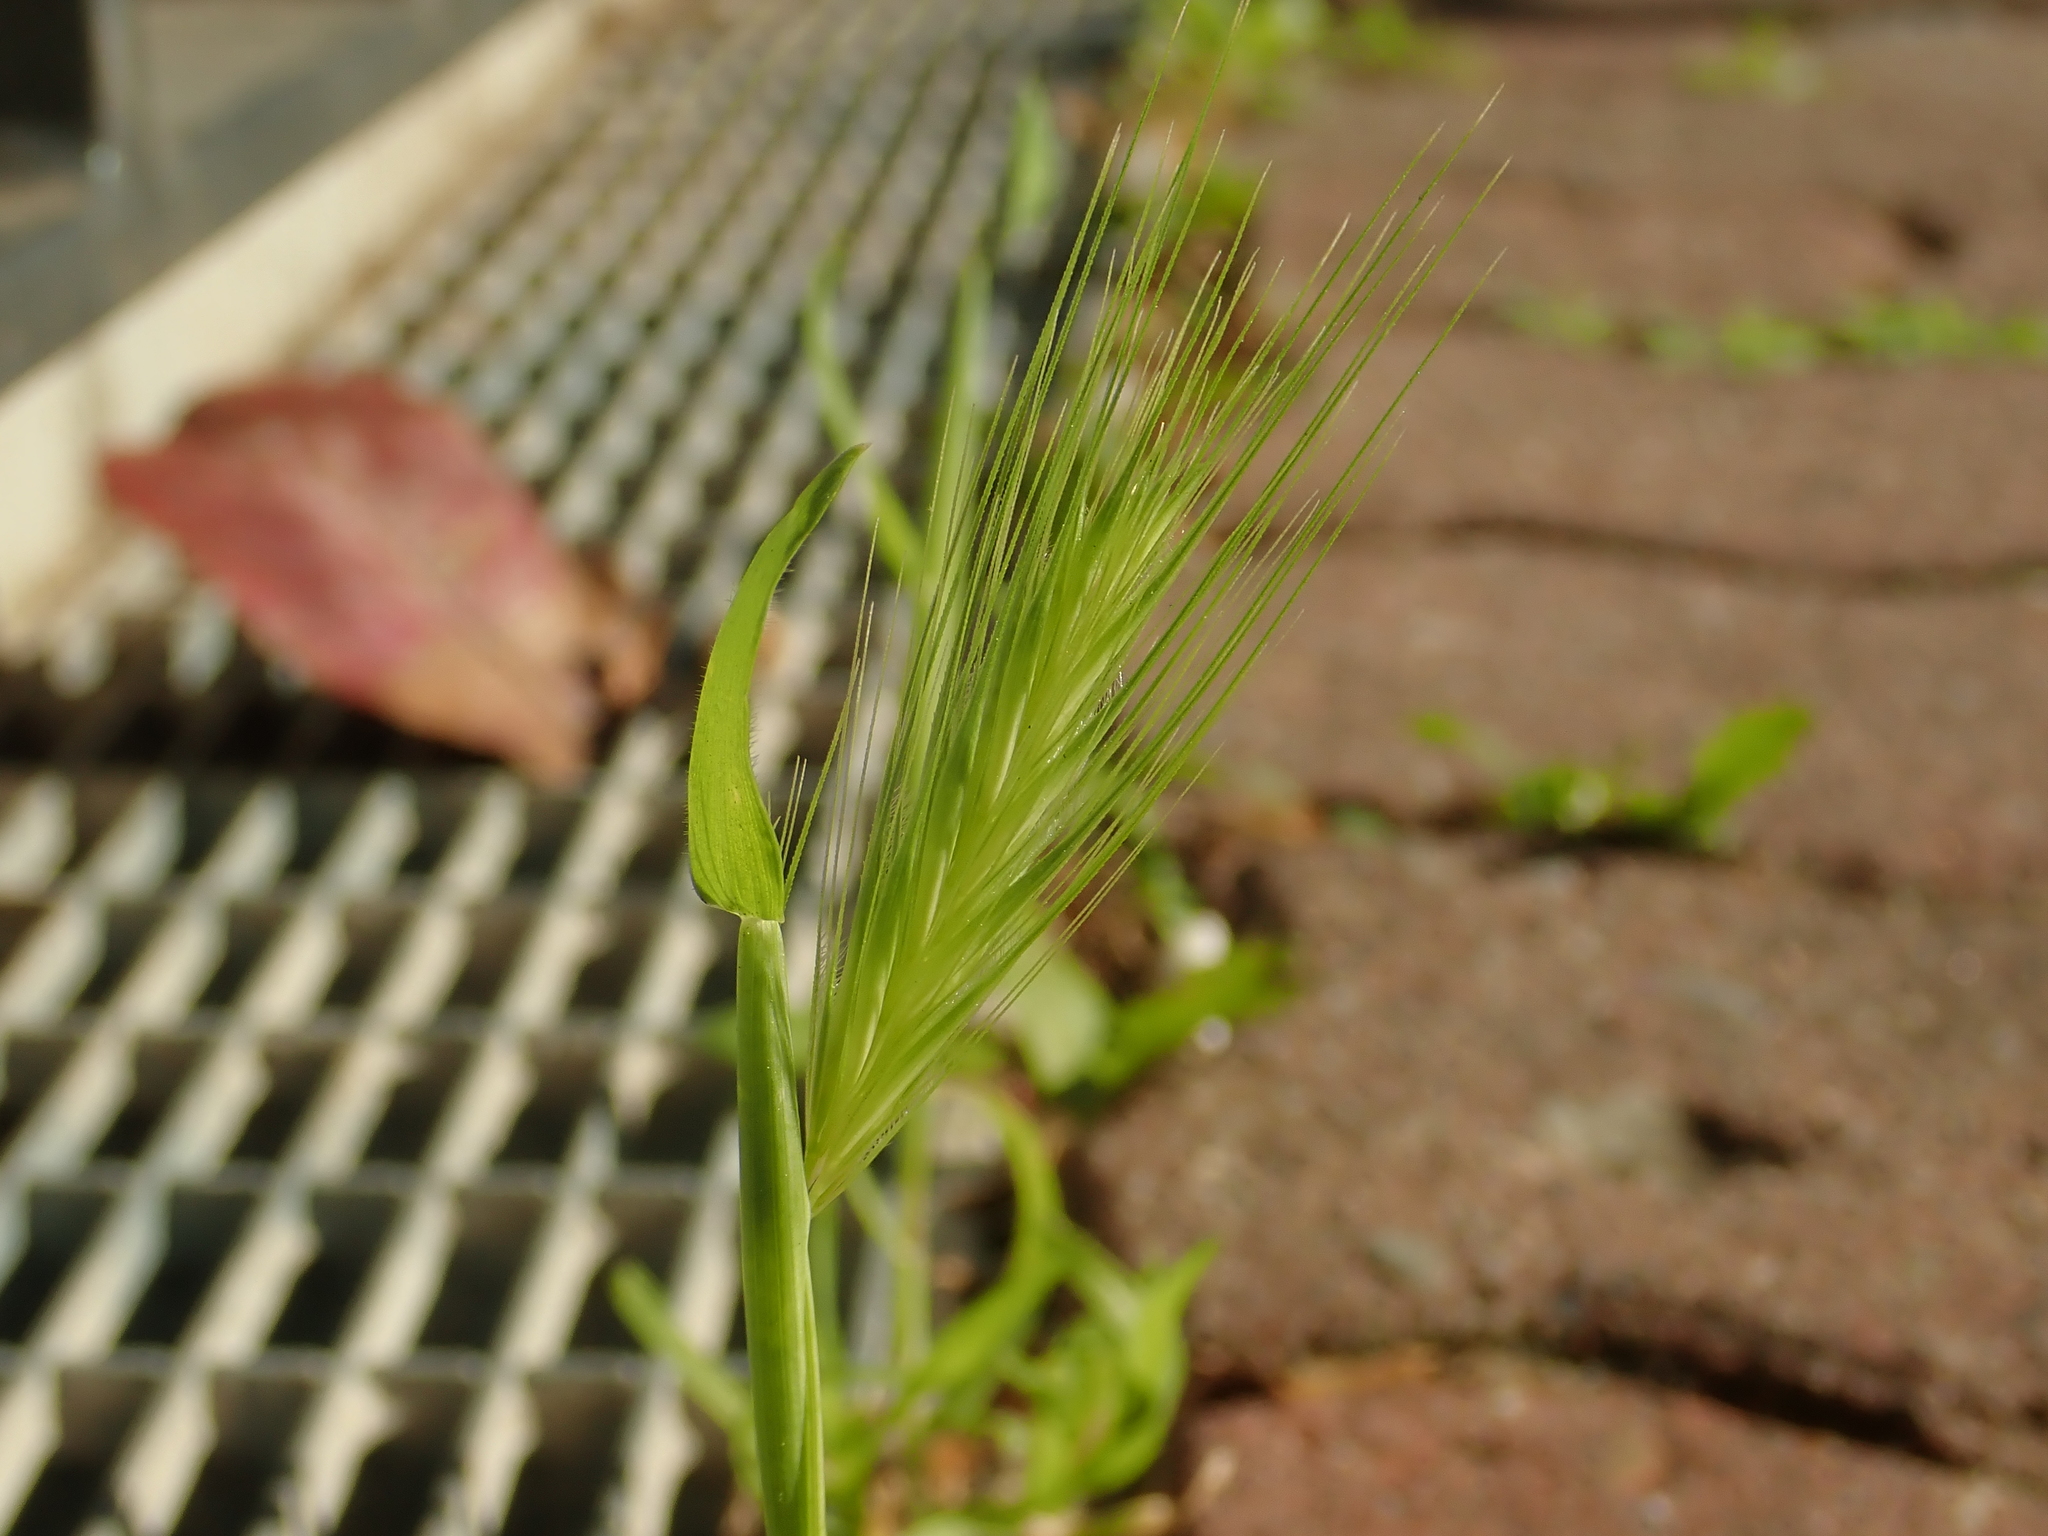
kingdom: Plantae
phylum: Tracheophyta
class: Liliopsida
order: Poales
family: Poaceae
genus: Hordeum
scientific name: Hordeum murinum
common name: Wall barley
